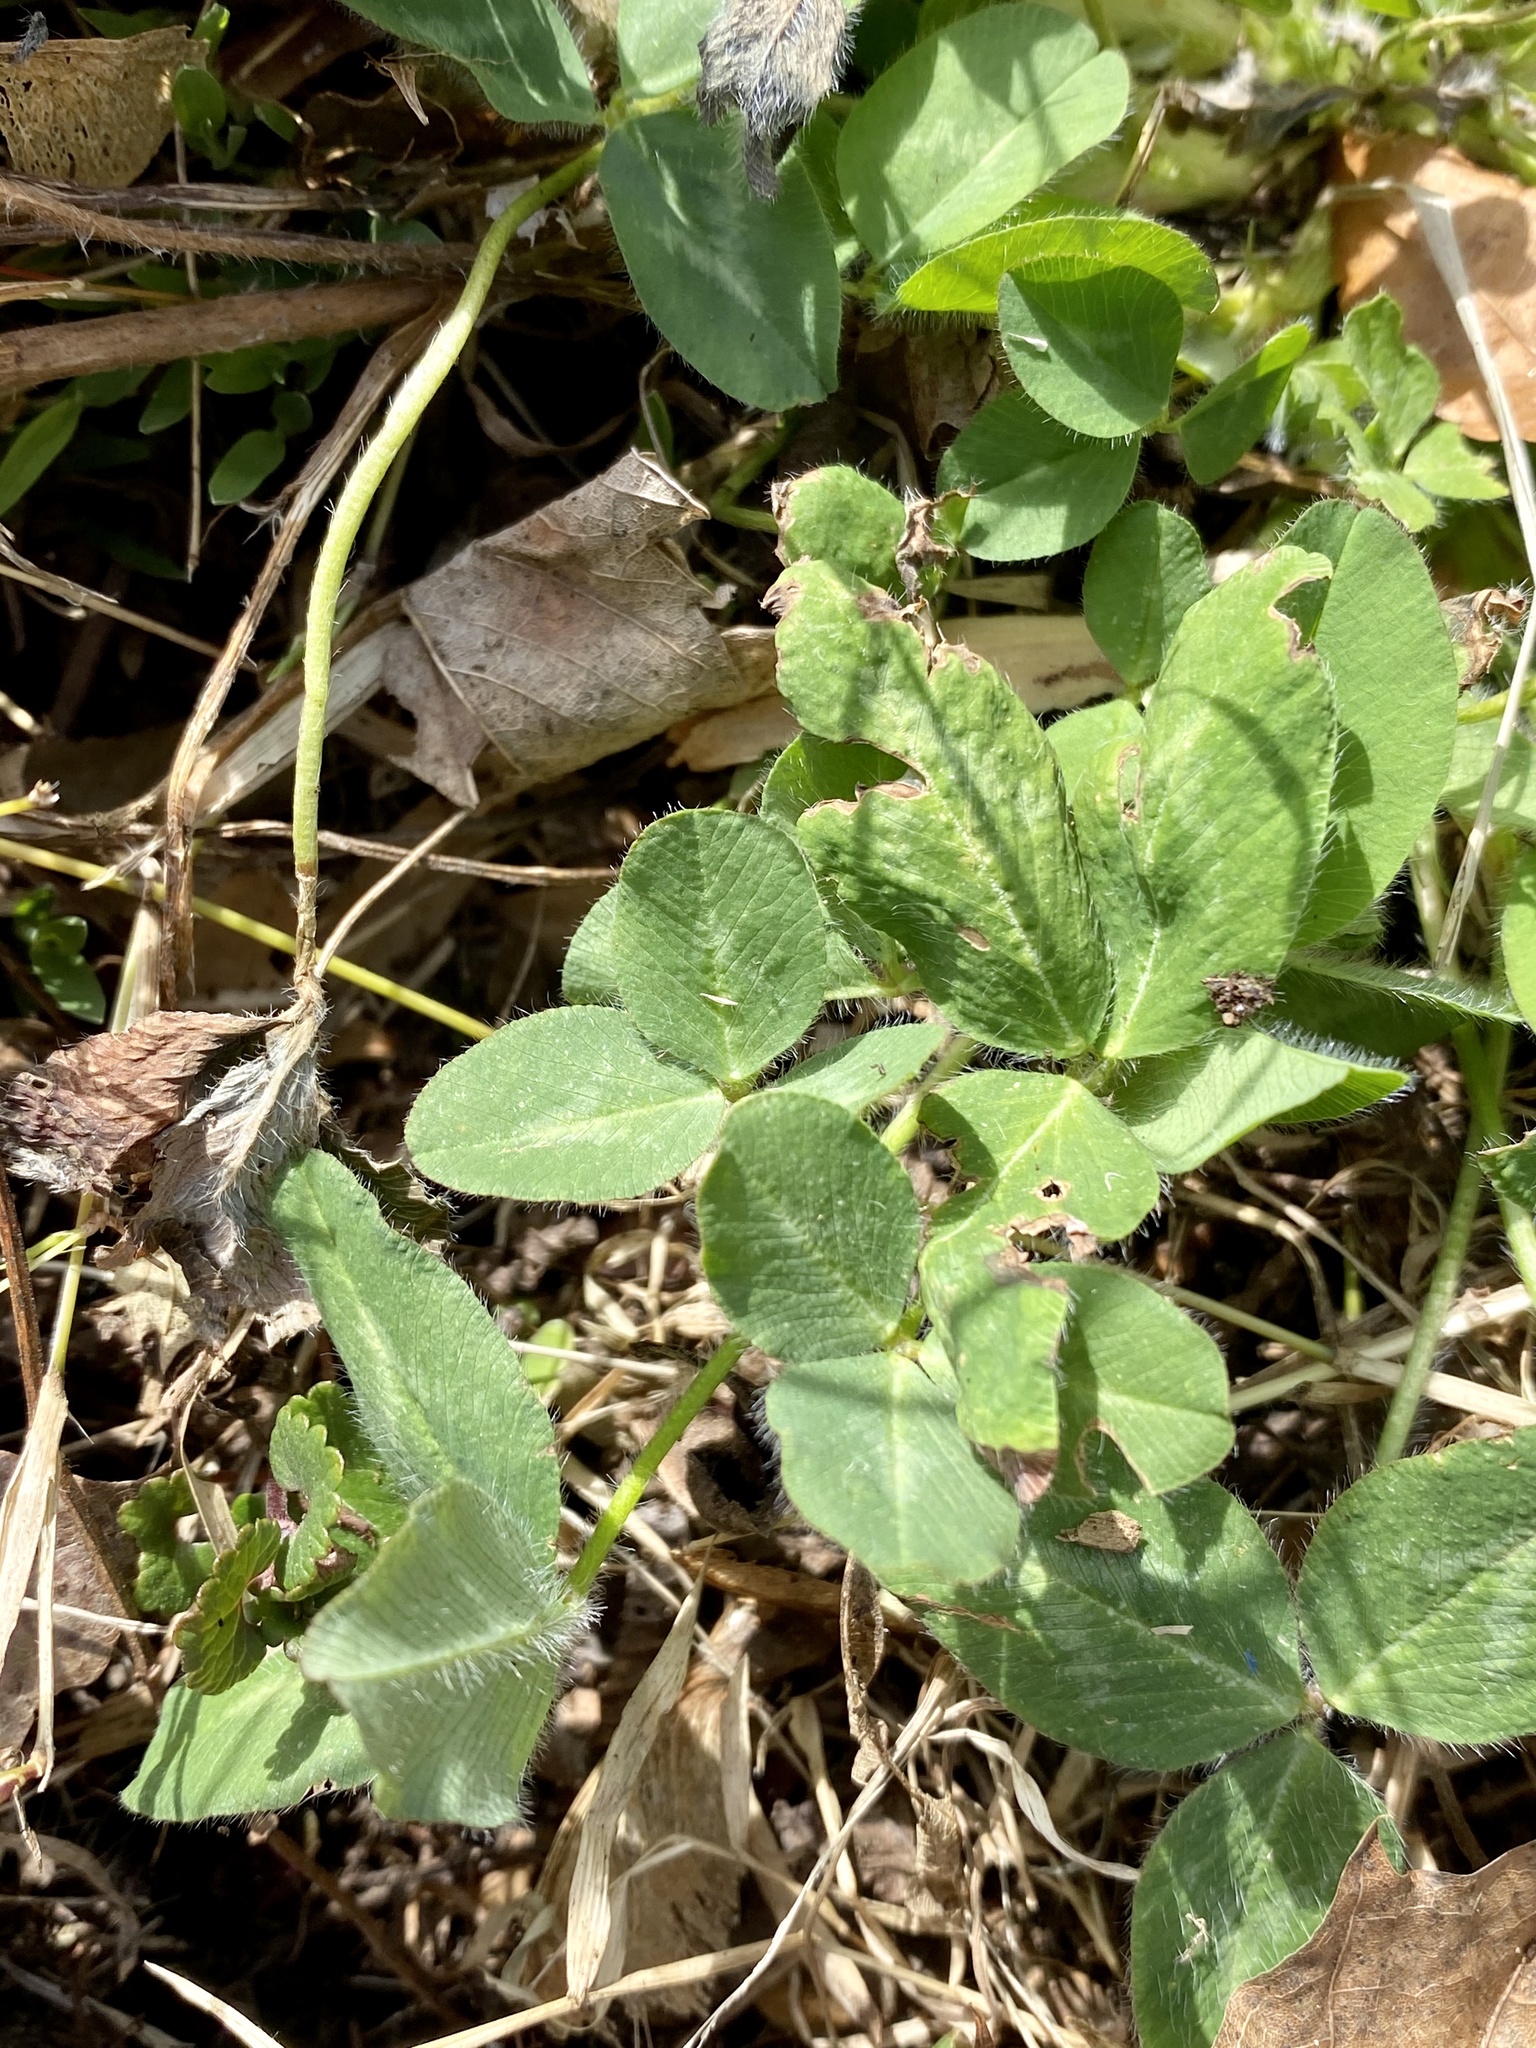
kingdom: Plantae
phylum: Tracheophyta
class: Magnoliopsida
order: Fabales
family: Fabaceae
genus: Trifolium
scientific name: Trifolium pratense
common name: Red clover
